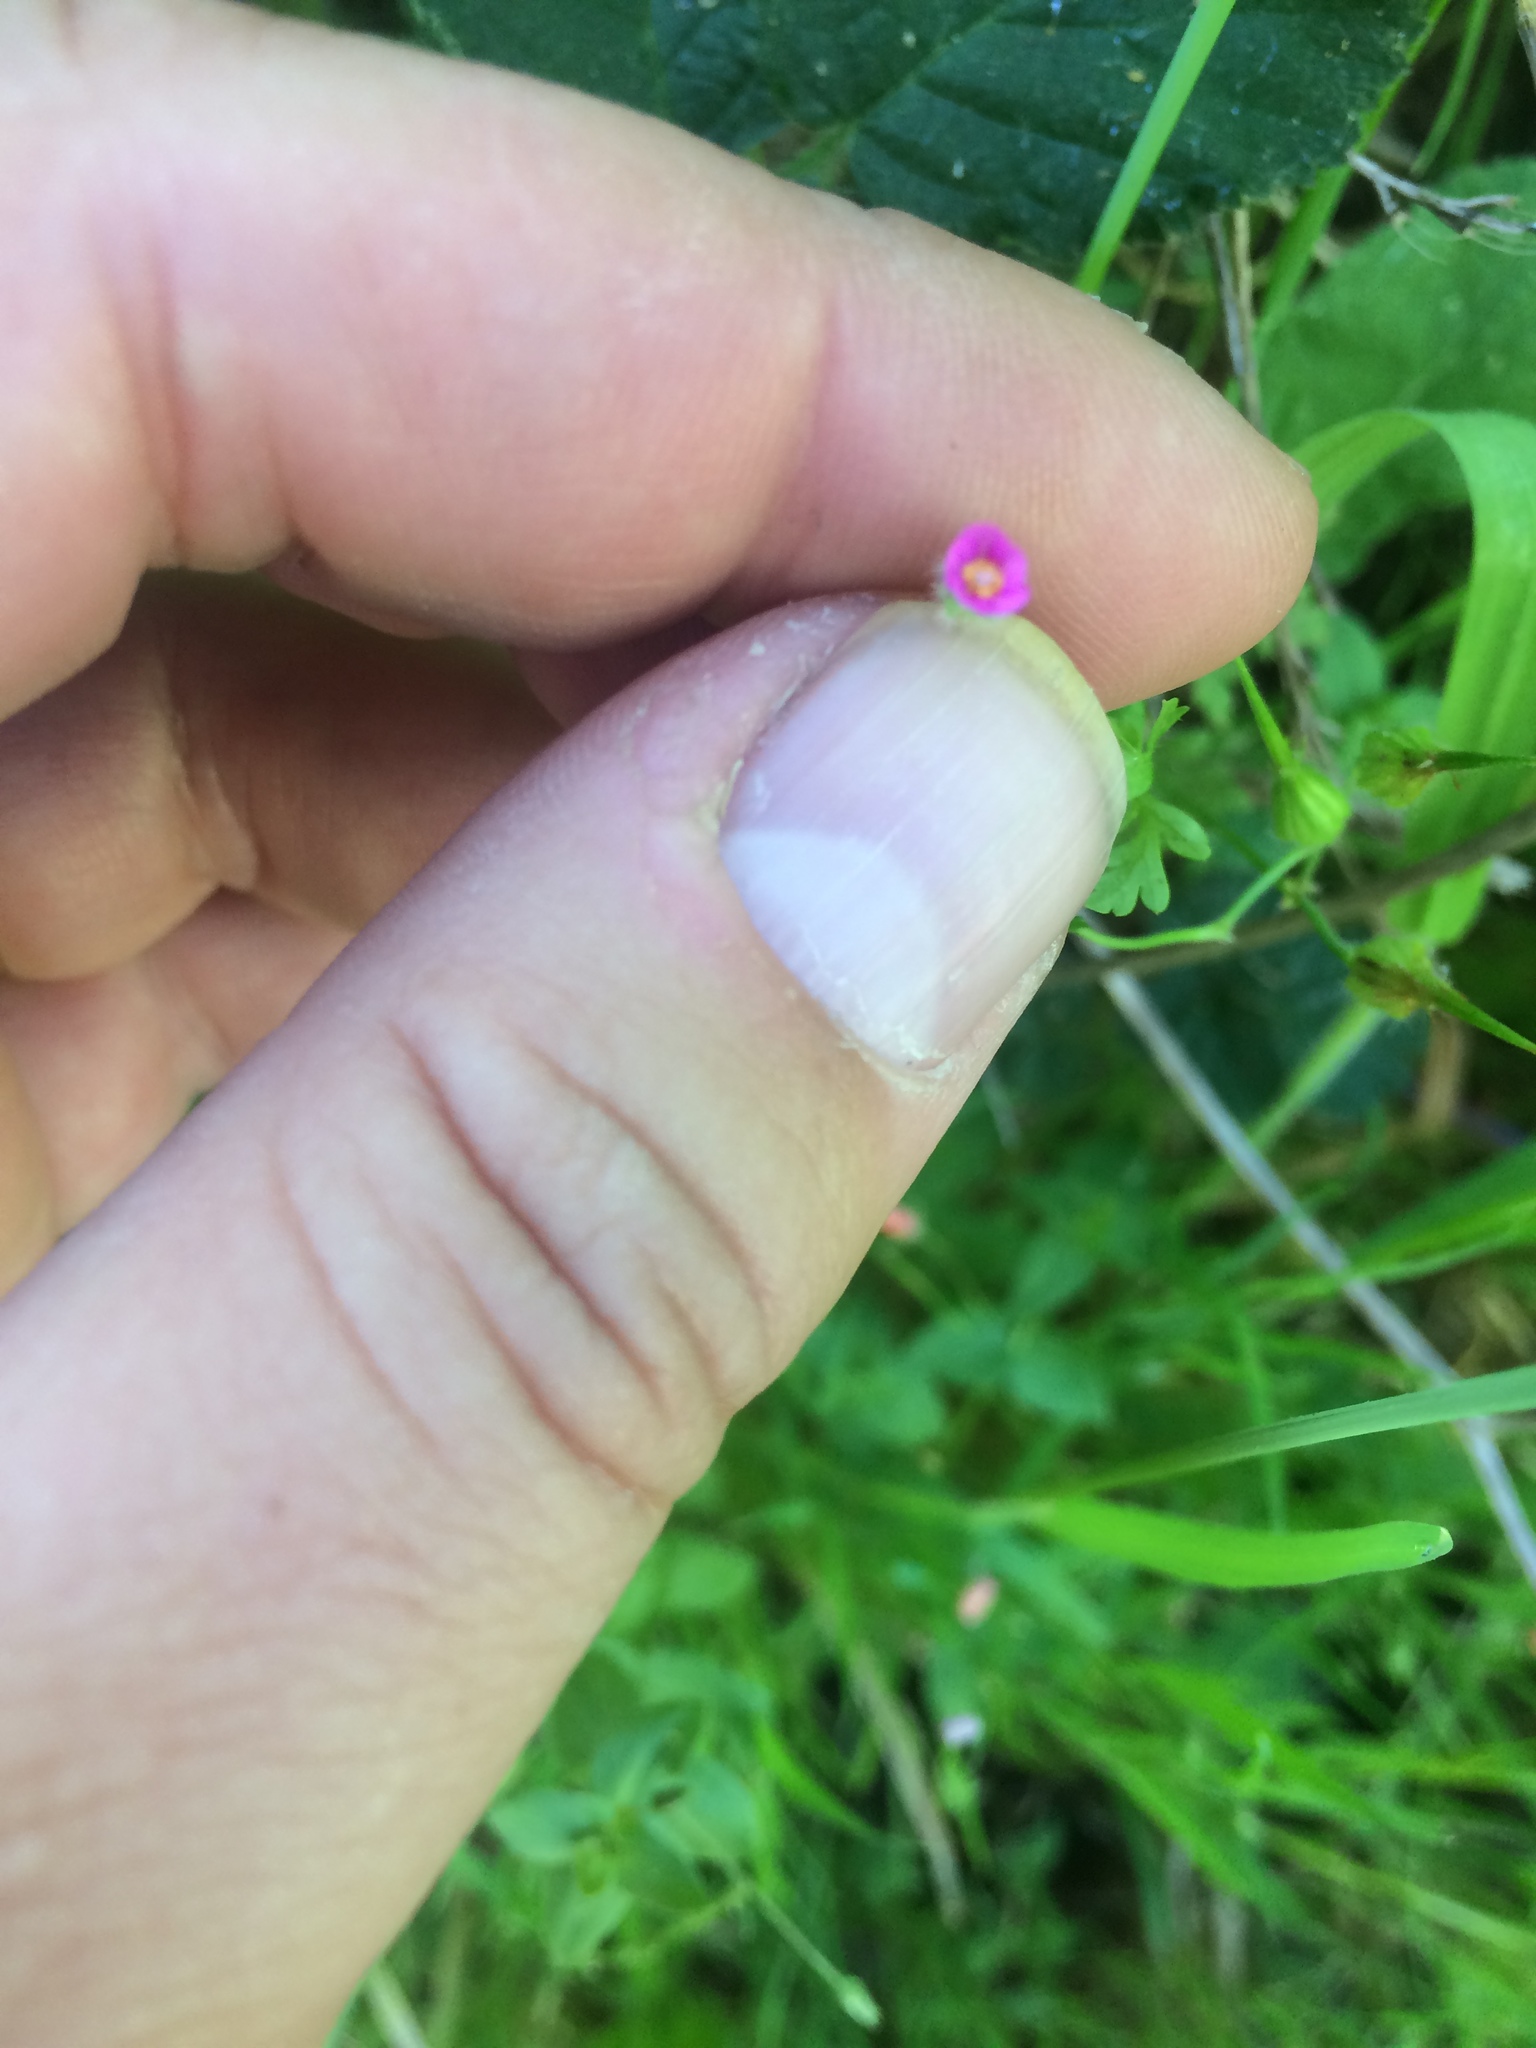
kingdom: Plantae
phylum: Tracheophyta
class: Magnoliopsida
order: Geraniales
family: Geraniaceae
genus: Geranium
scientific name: Geranium purpureum
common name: Little-robin
